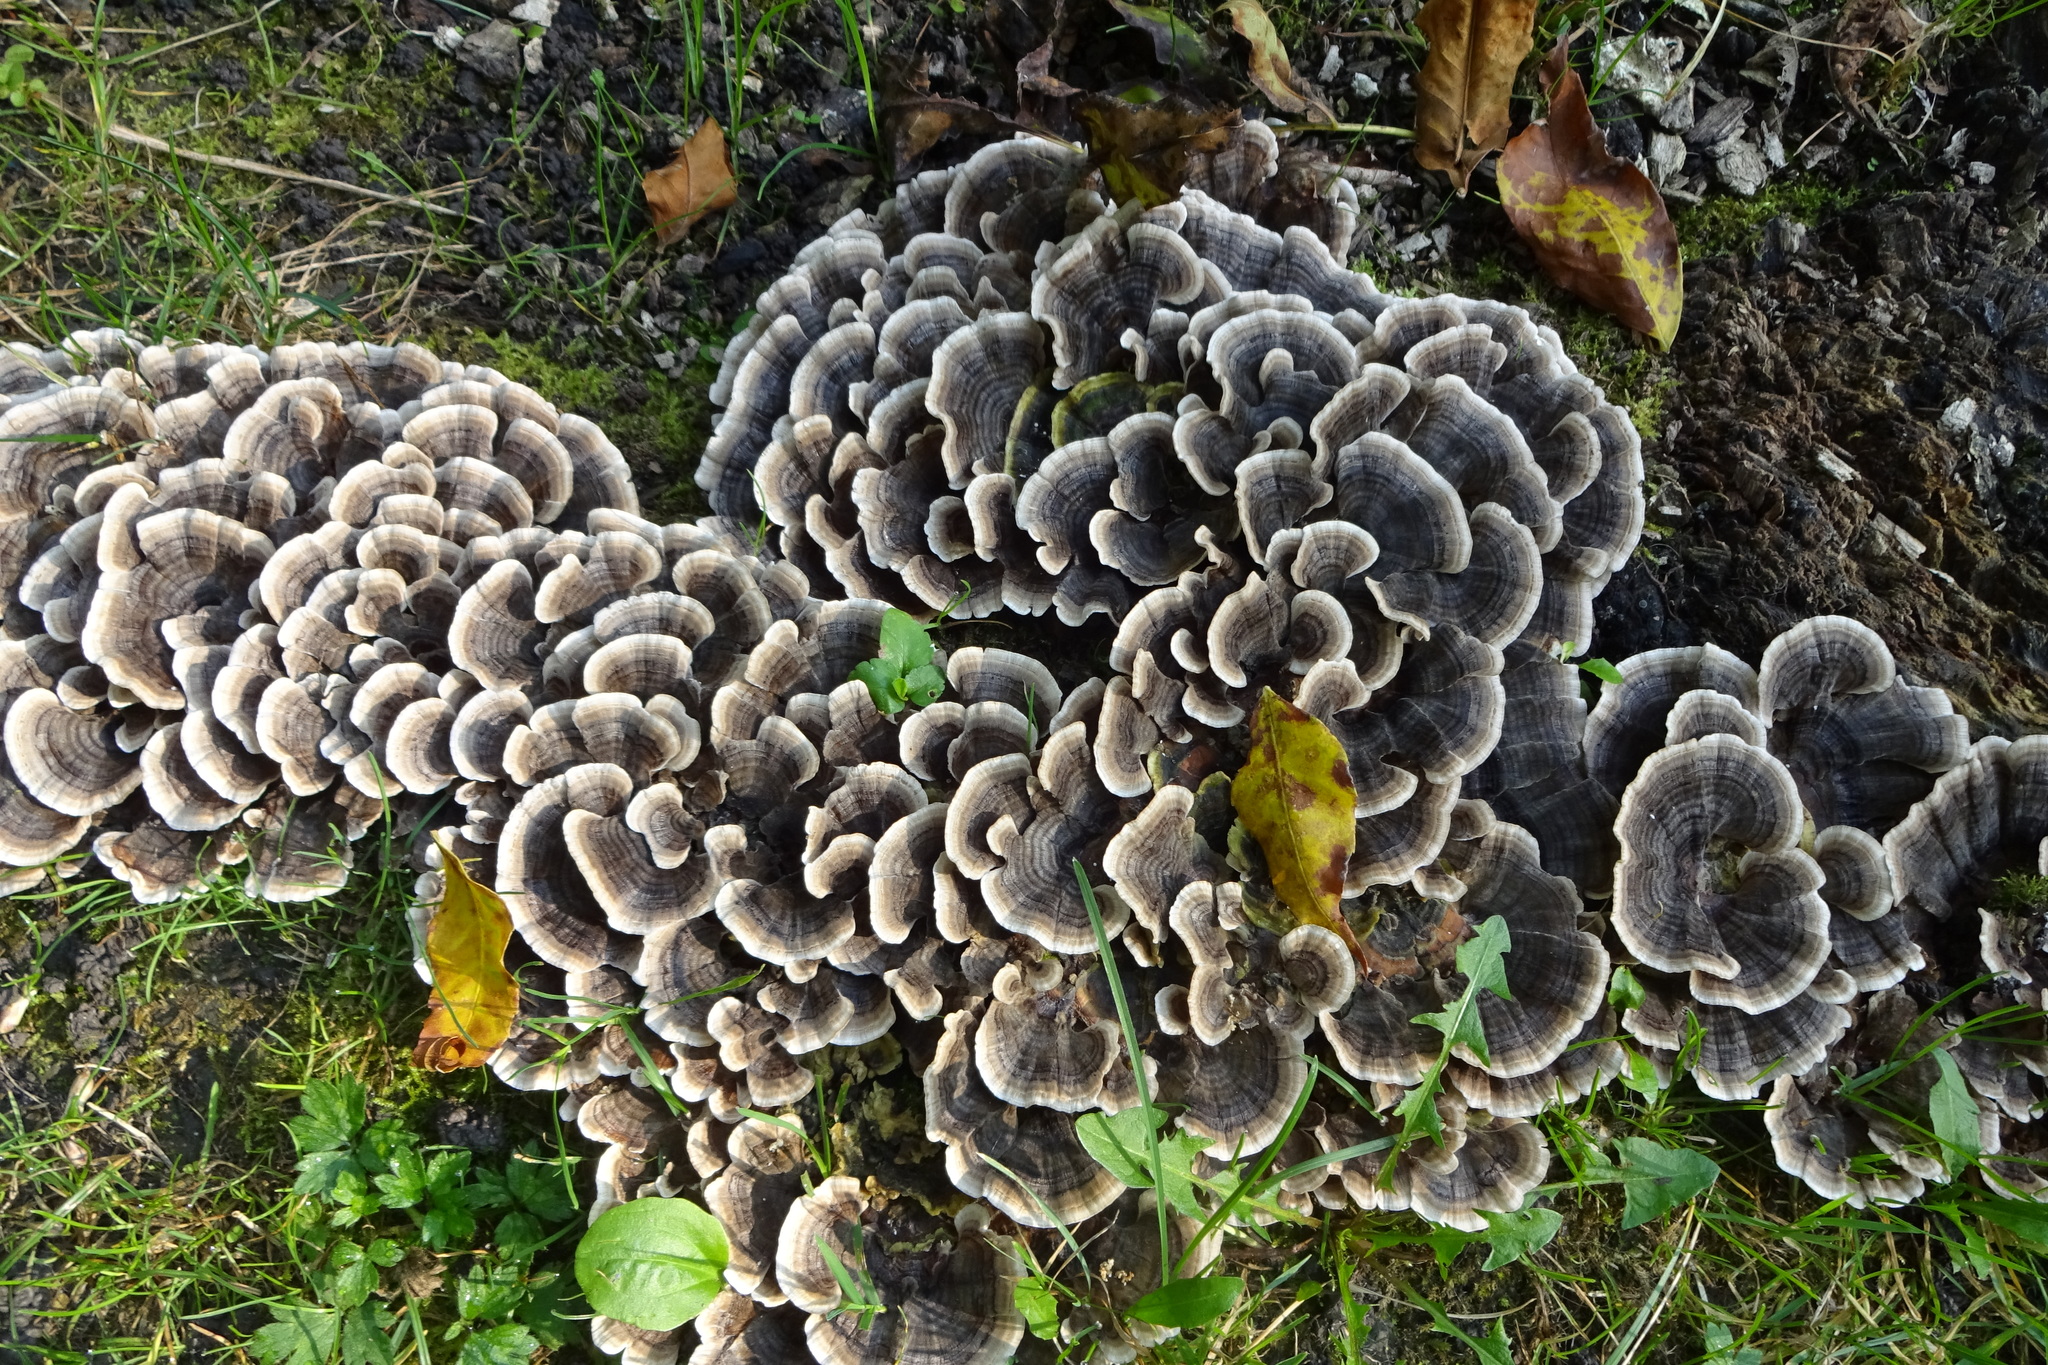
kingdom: Fungi
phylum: Basidiomycota
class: Agaricomycetes
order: Polyporales
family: Polyporaceae
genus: Trametes
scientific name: Trametes versicolor
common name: Turkeytail
